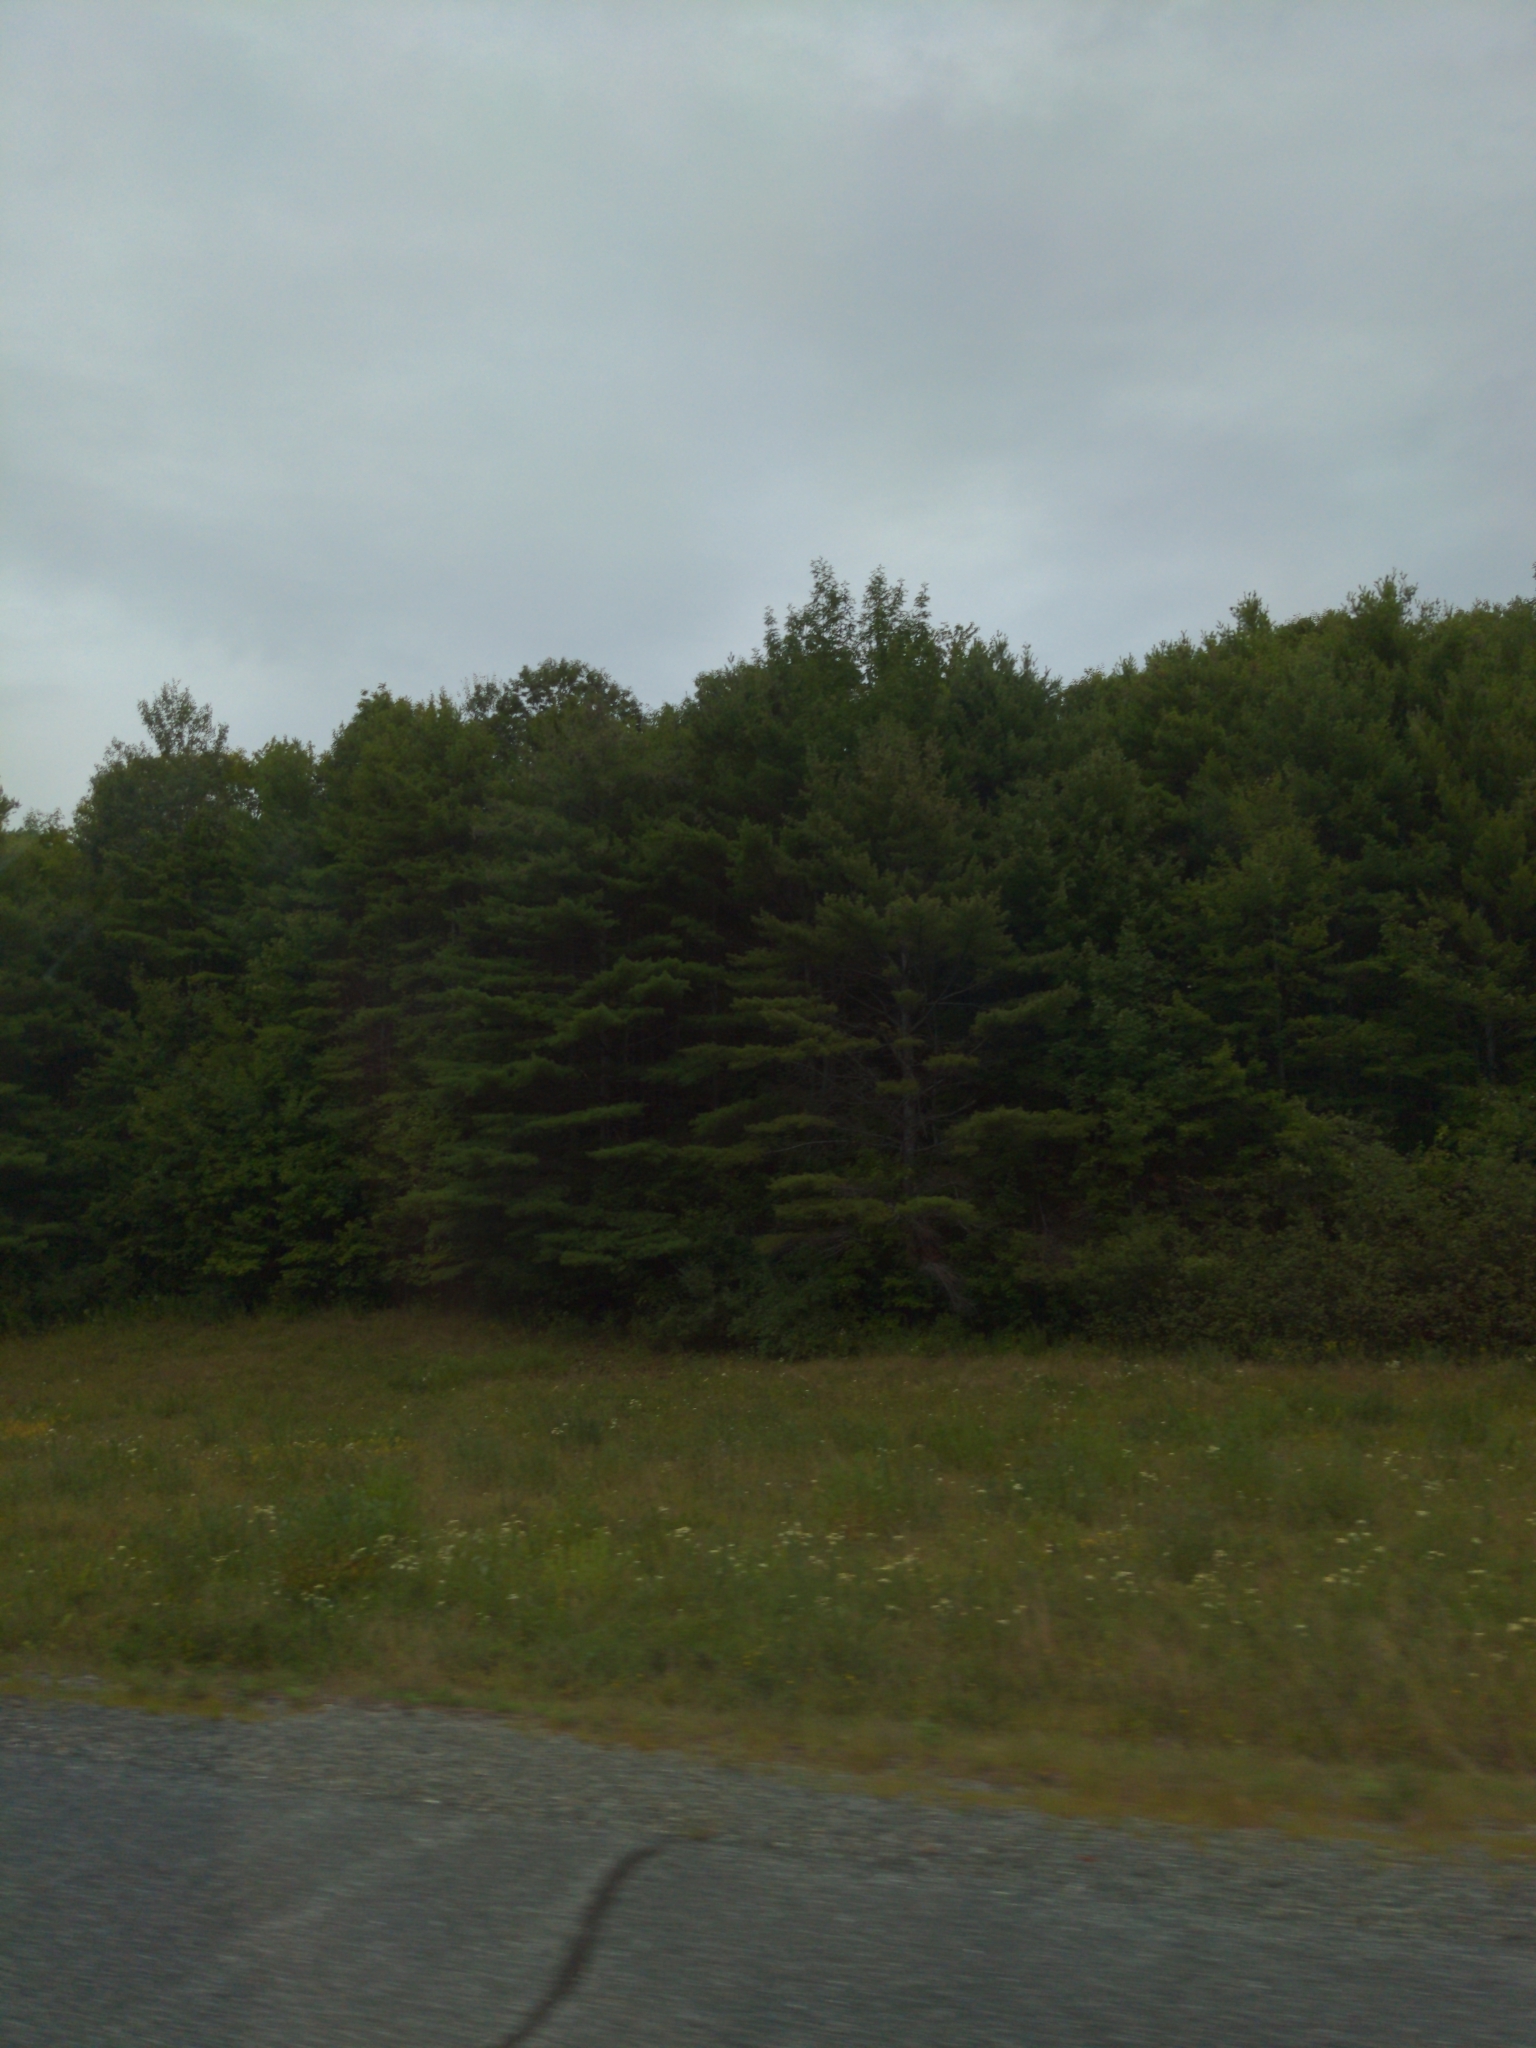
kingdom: Plantae
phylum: Tracheophyta
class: Pinopsida
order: Pinales
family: Pinaceae
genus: Pinus
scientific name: Pinus strobus
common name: Weymouth pine
